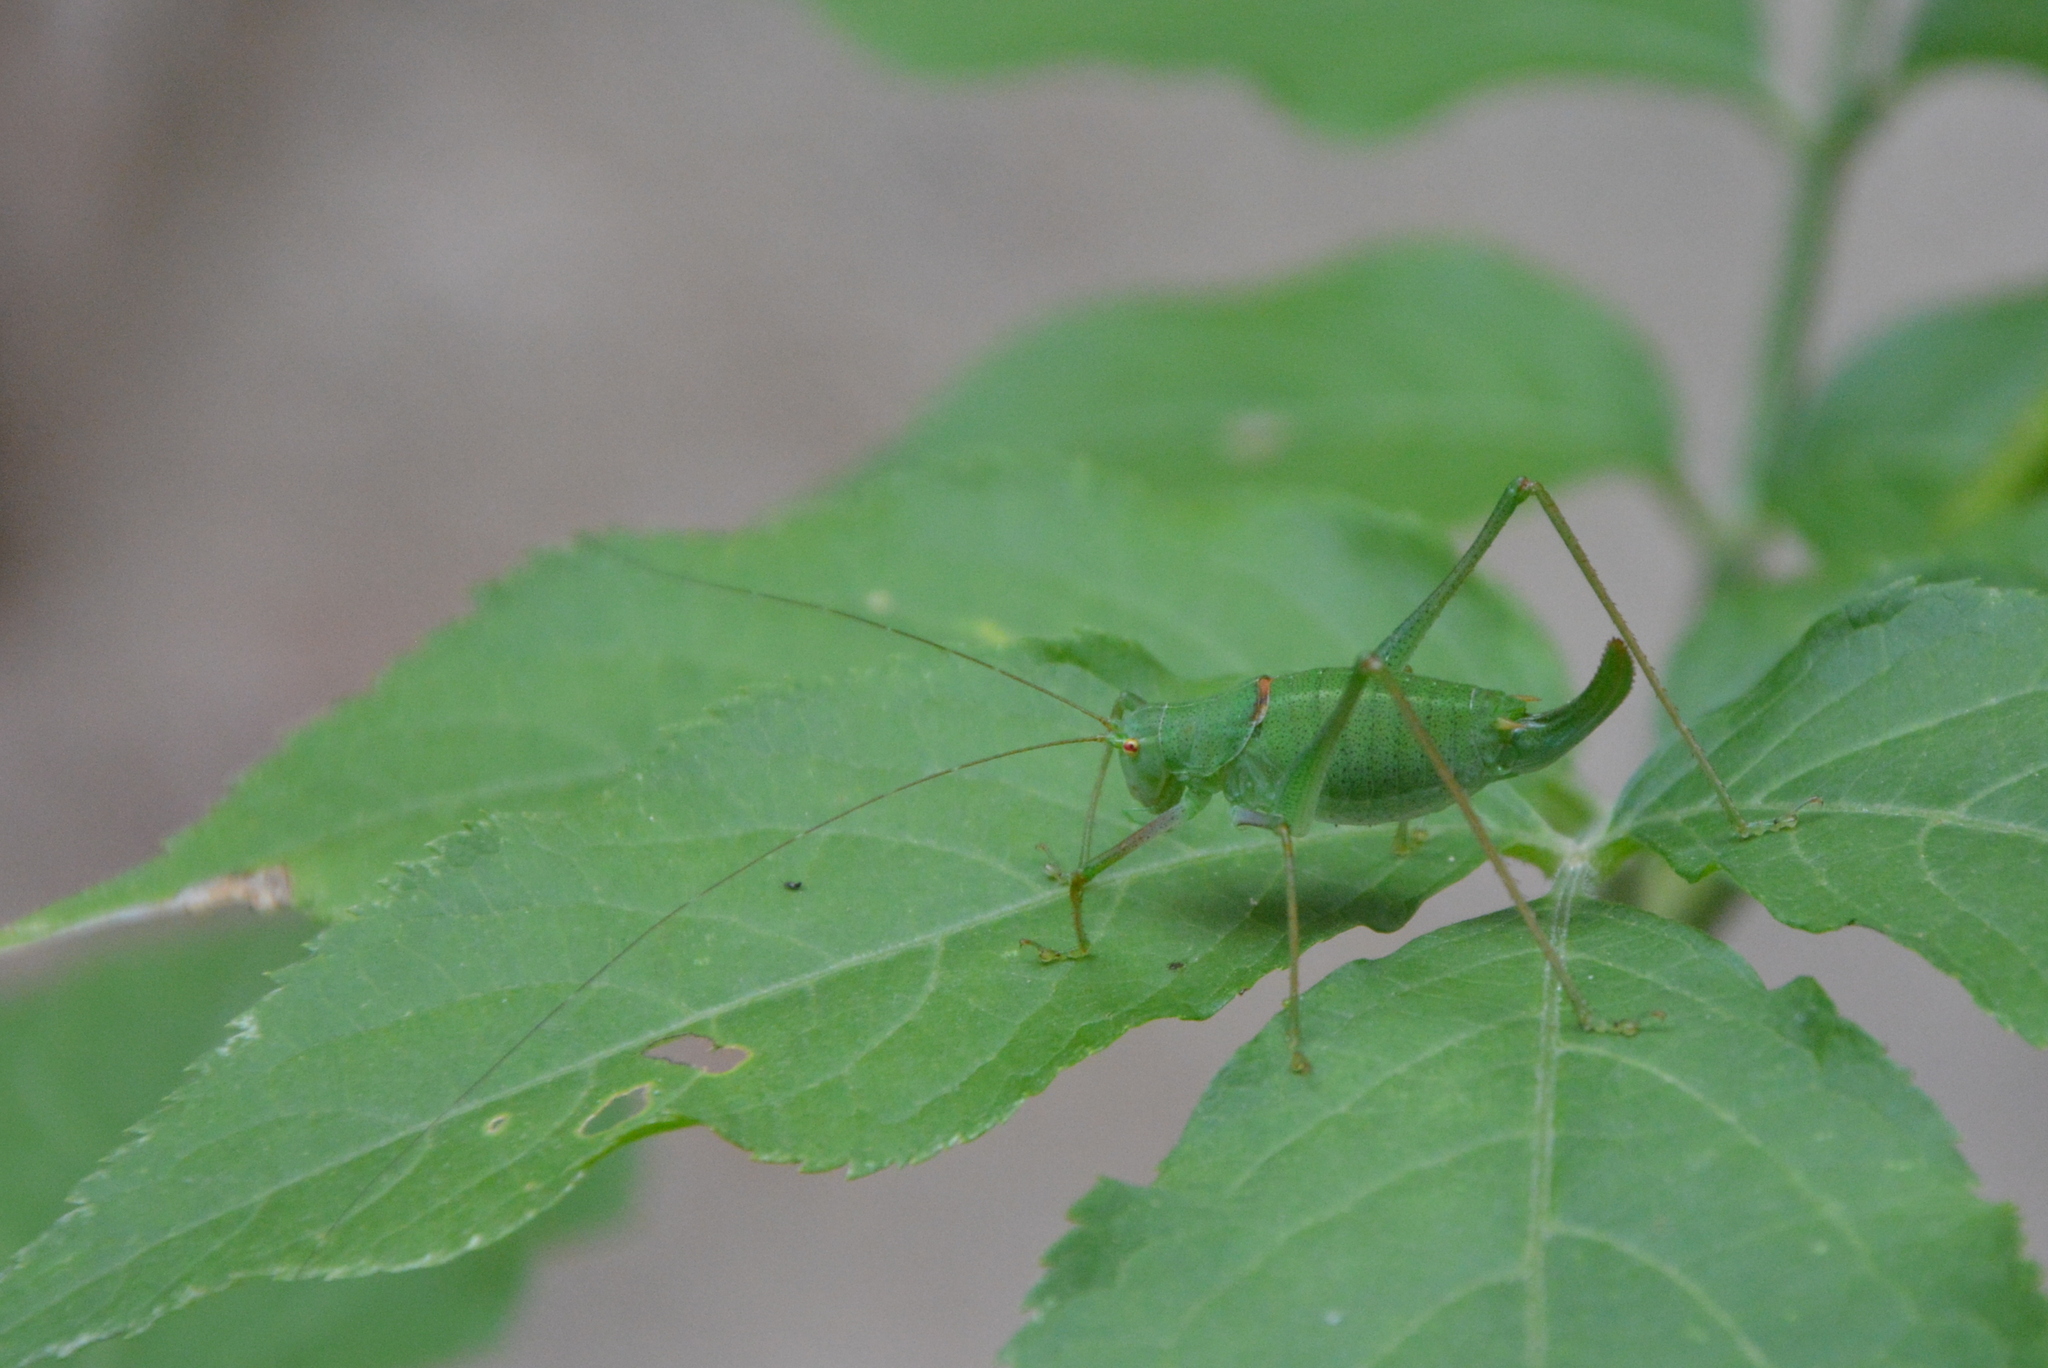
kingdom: Animalia
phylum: Arthropoda
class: Insecta
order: Orthoptera
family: Tettigoniidae
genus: Poecilimon
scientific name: Poecilimon schmidtii
